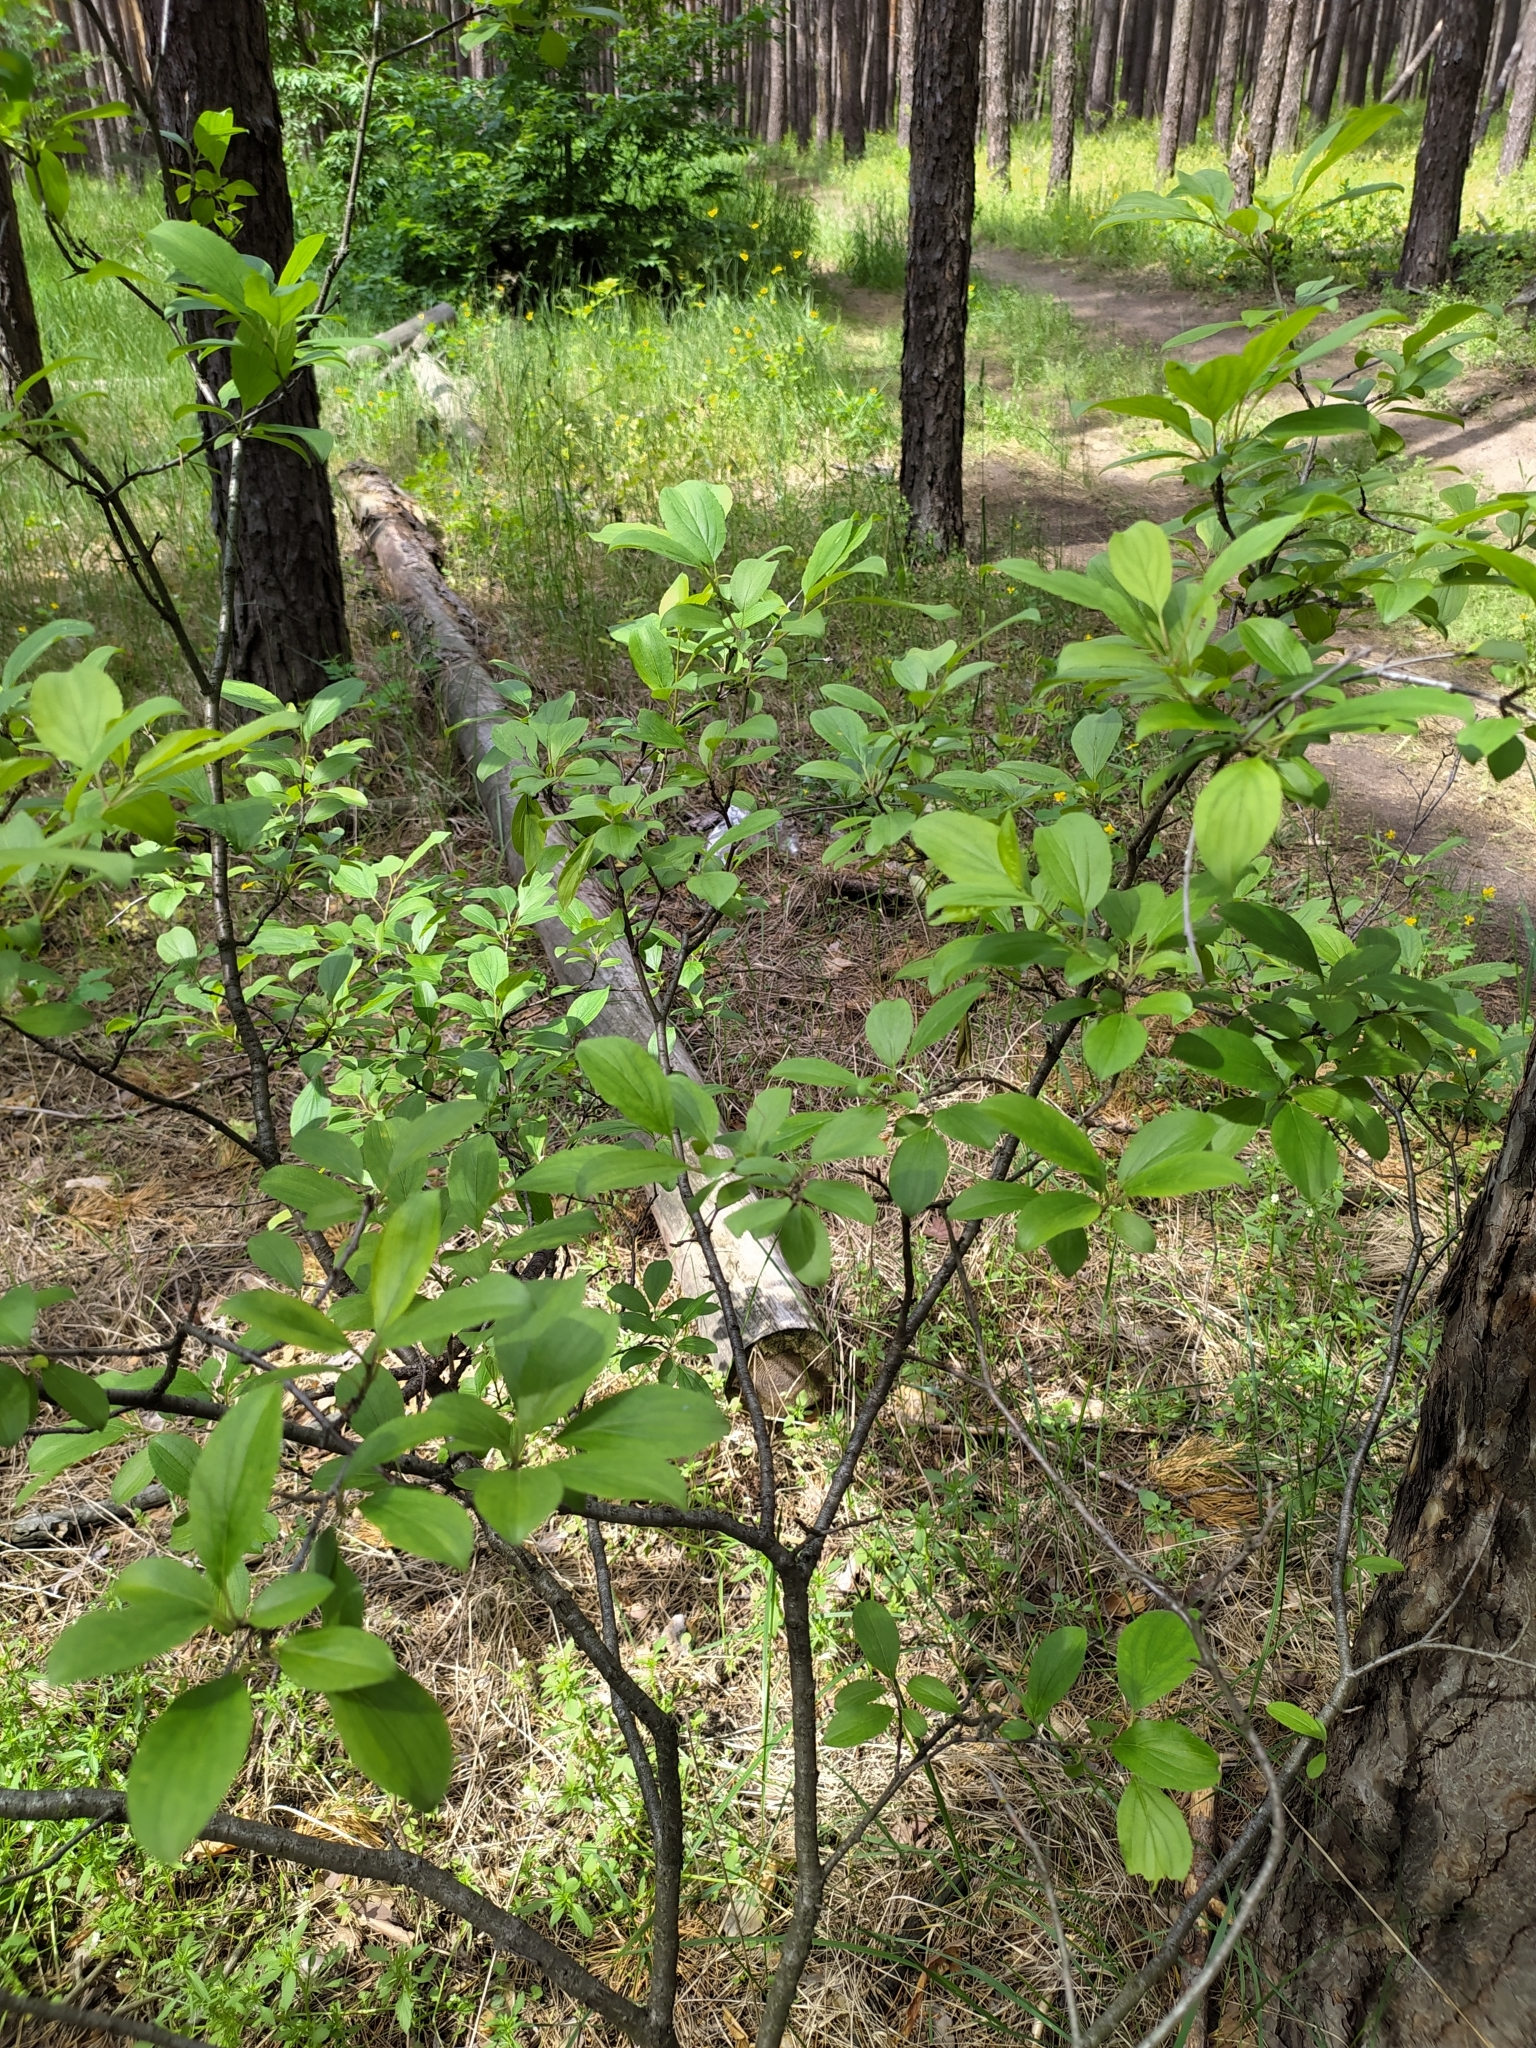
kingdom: Plantae
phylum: Tracheophyta
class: Magnoliopsida
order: Rosales
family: Rhamnaceae
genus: Rhamnus
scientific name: Rhamnus cathartica
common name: Common buckthorn
